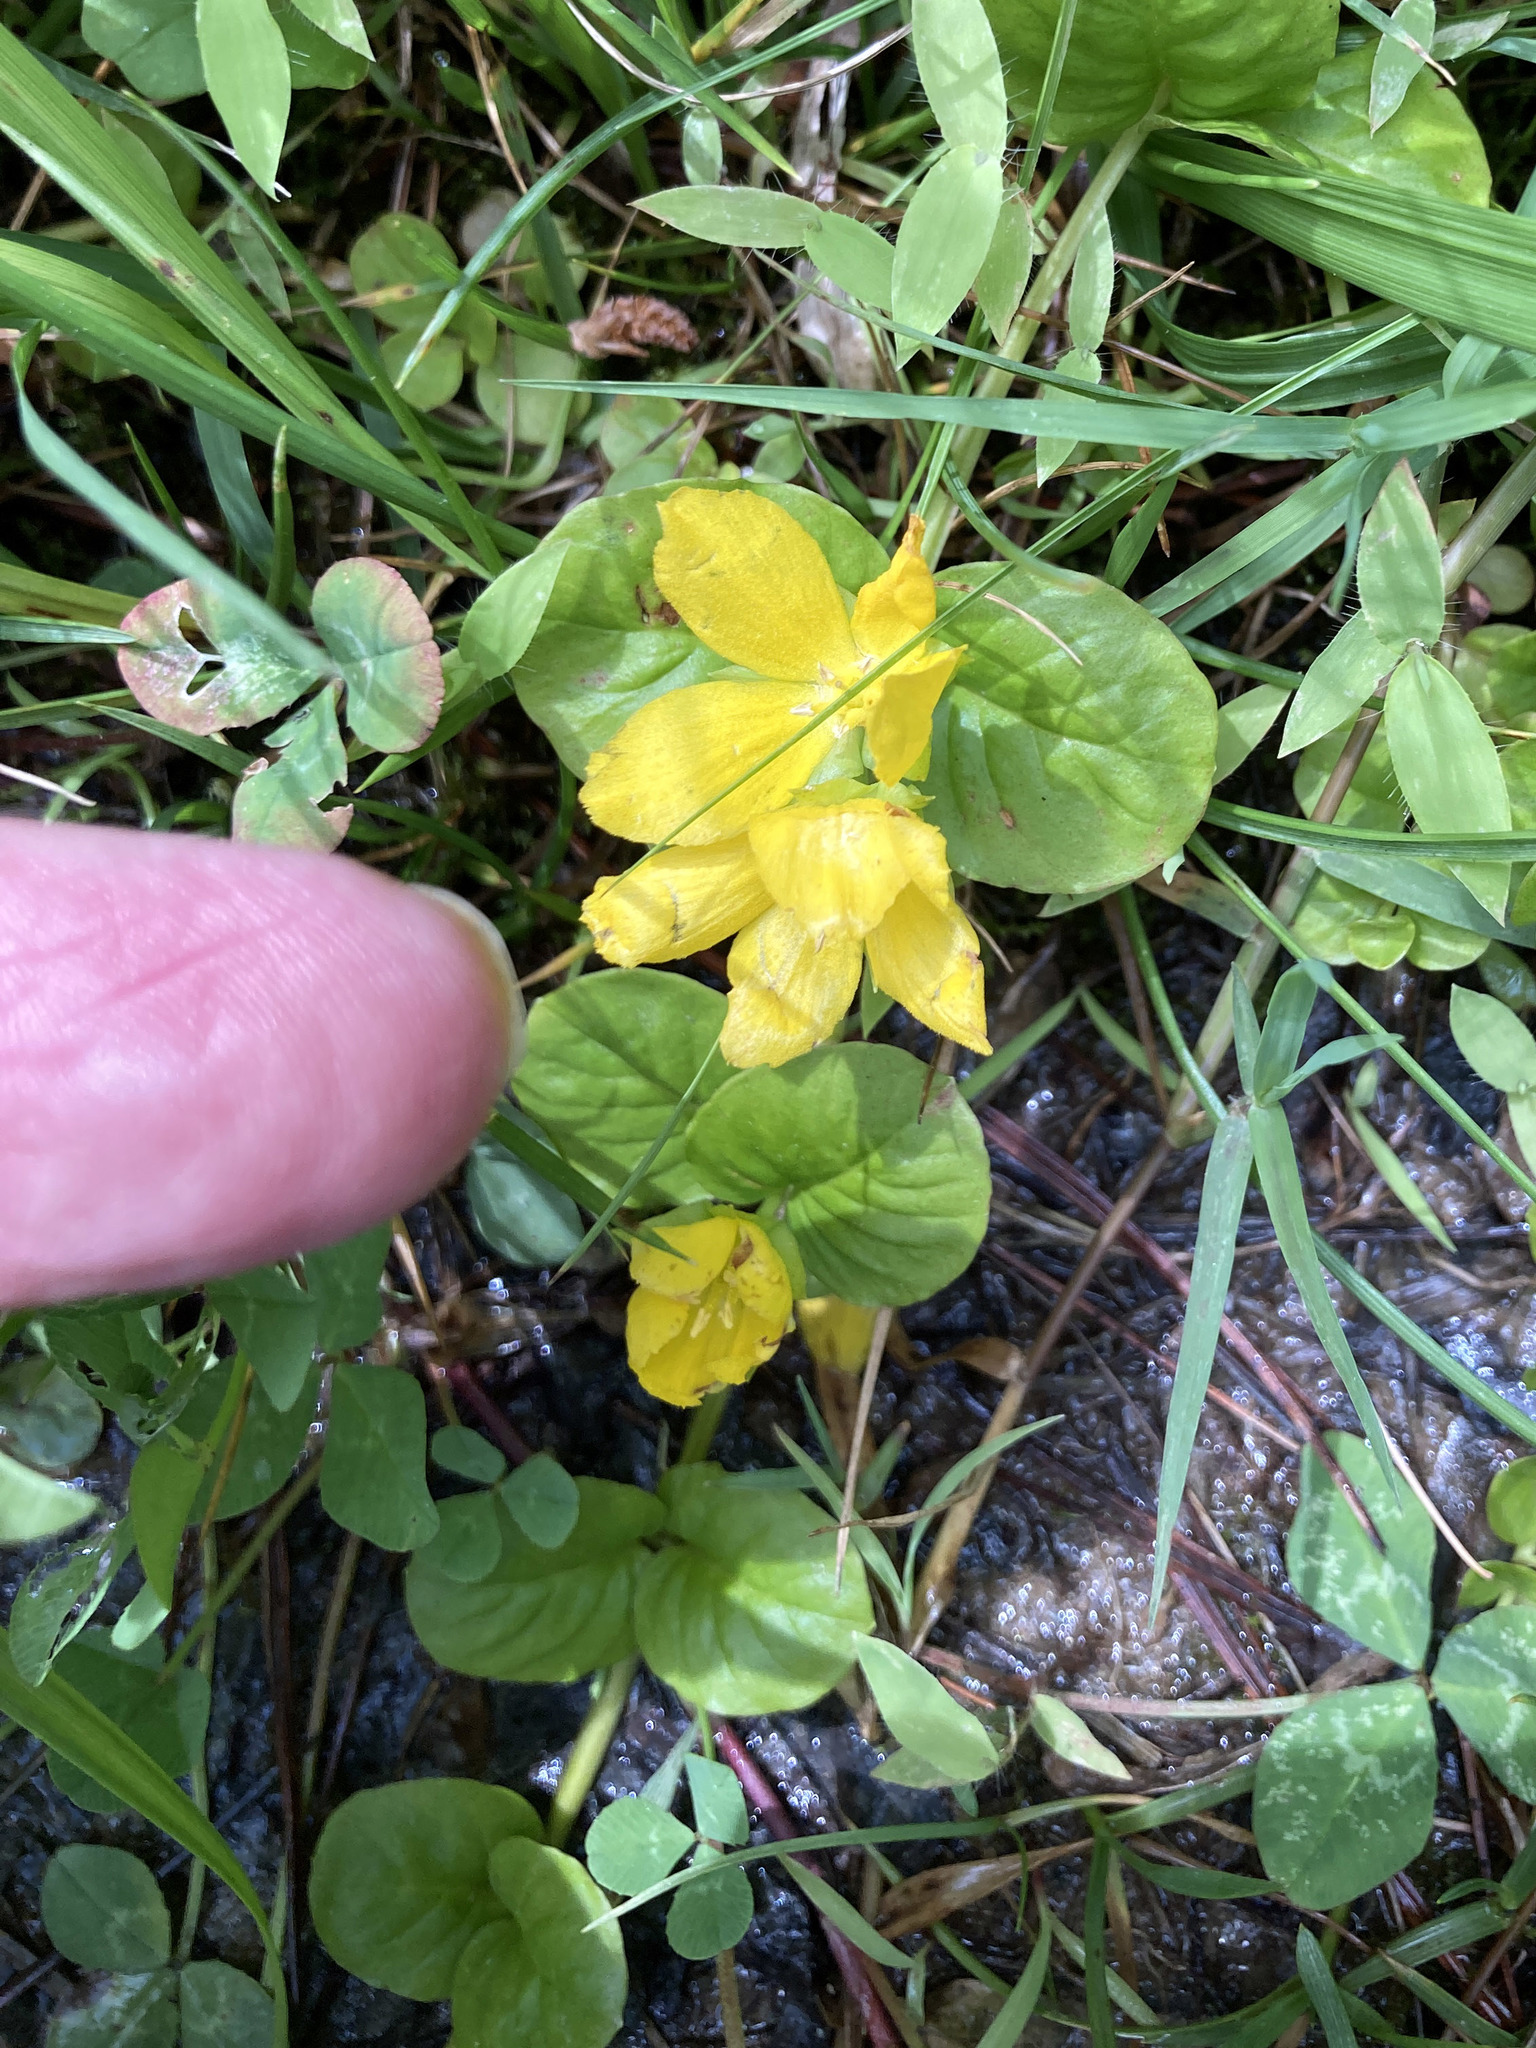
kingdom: Plantae
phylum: Tracheophyta
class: Magnoliopsida
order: Ericales
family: Primulaceae
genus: Lysimachia
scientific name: Lysimachia nummularia
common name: Moneywort
